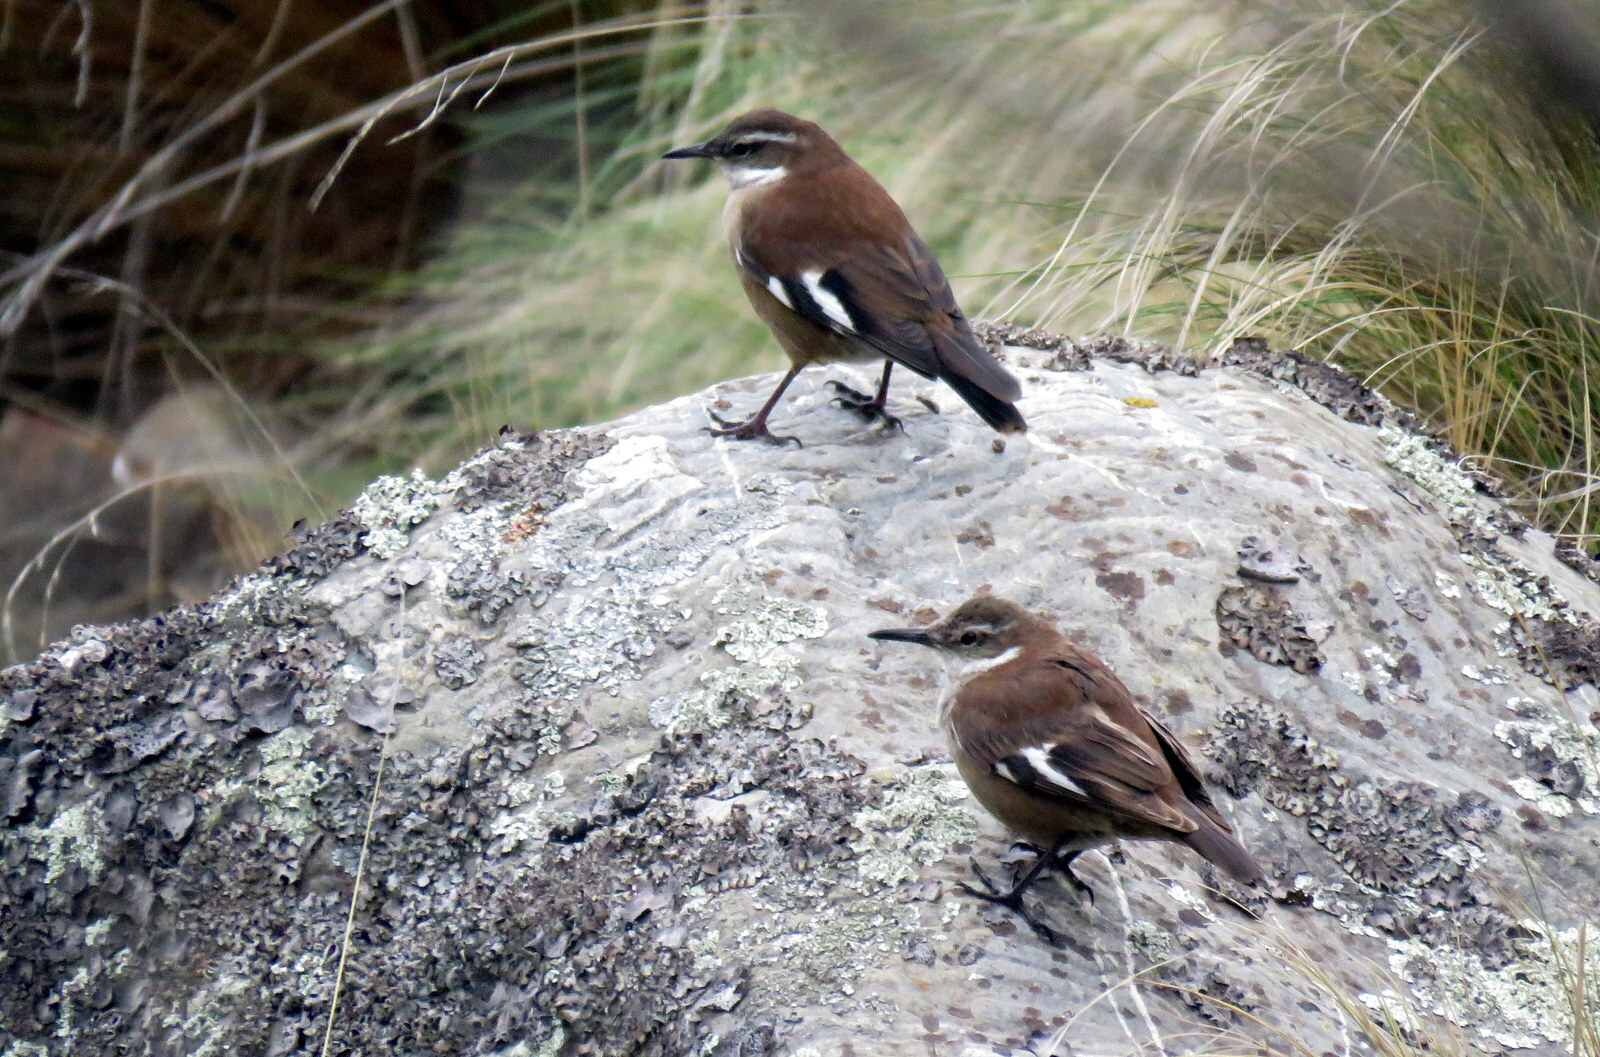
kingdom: Animalia
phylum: Chordata
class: Aves
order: Passeriformes
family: Furnariidae
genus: Cinclodes
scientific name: Cinclodes atacamensis
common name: White-winged cinclodes
